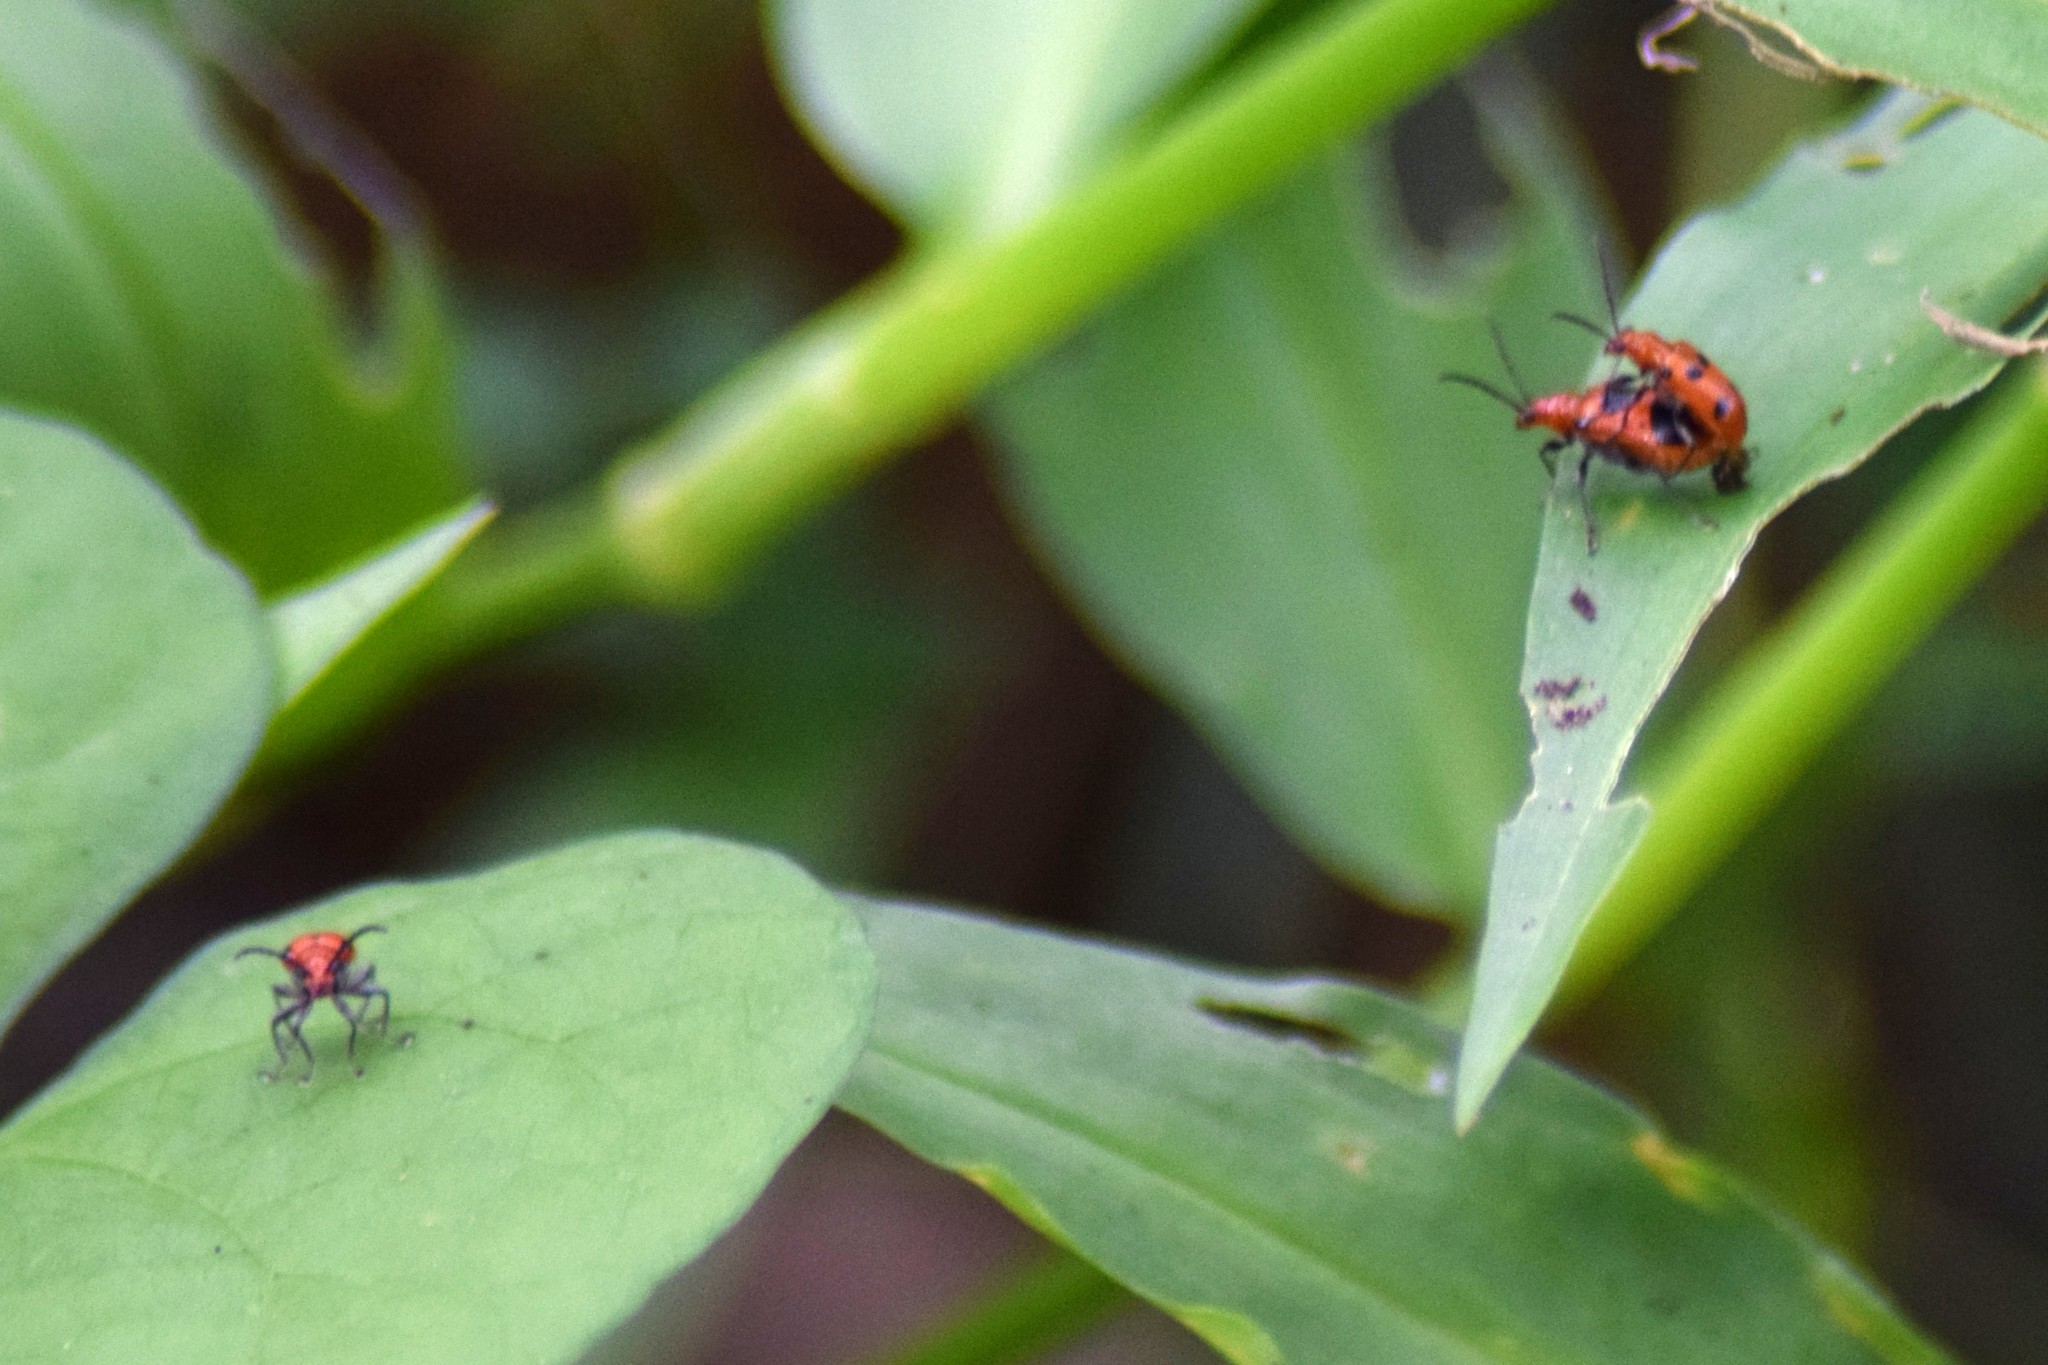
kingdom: Animalia
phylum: Arthropoda
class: Insecta
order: Coleoptera
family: Chrysomelidae
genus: Neolema
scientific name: Neolema sexpunctata
